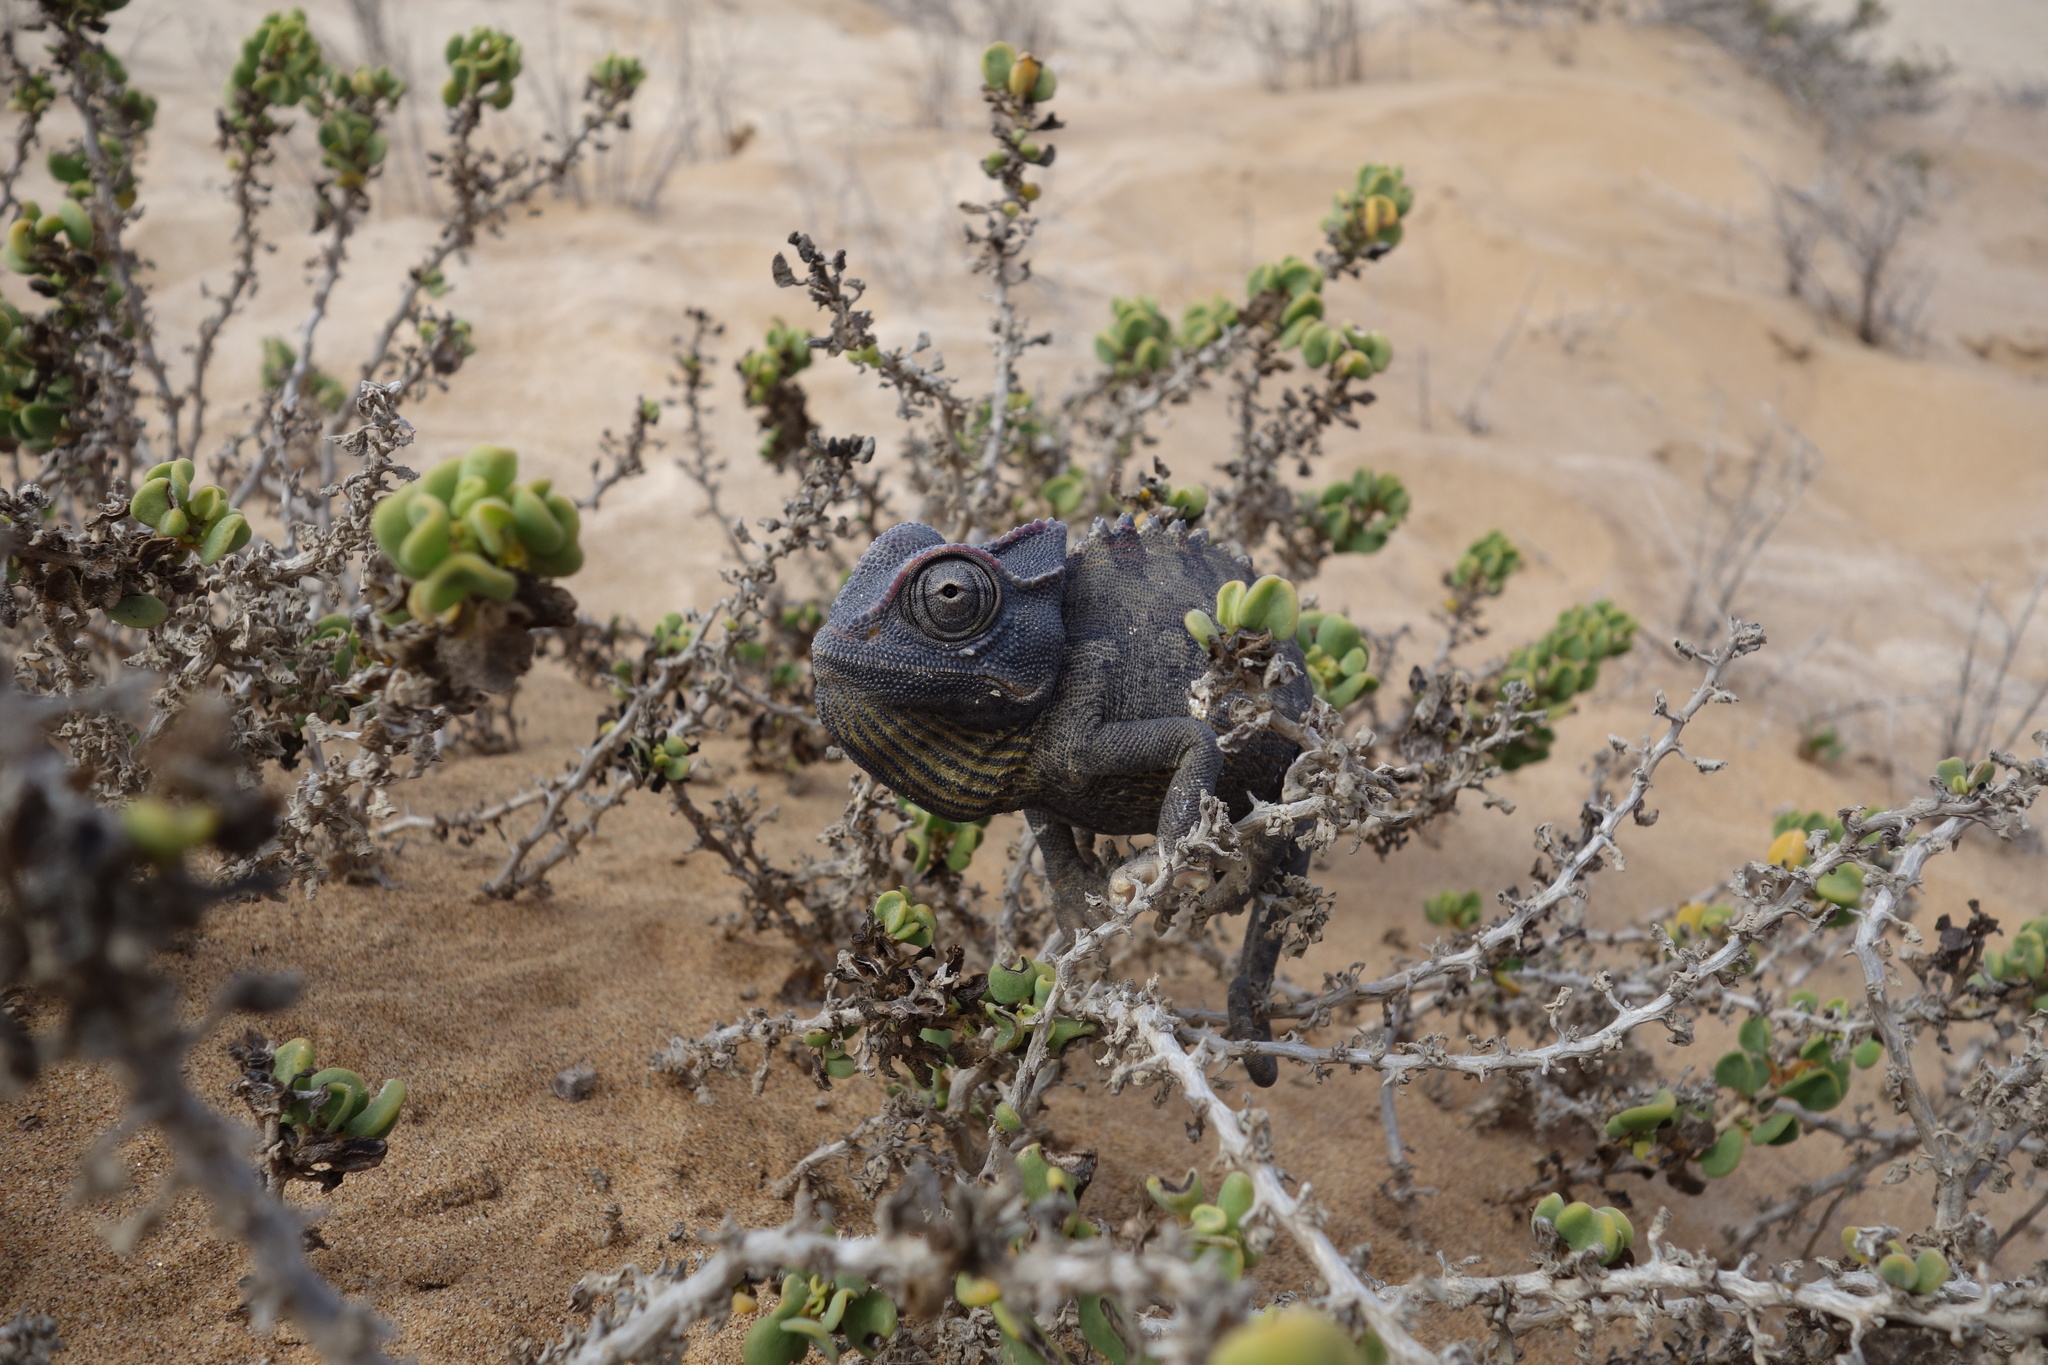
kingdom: Animalia
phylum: Chordata
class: Squamata
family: Chamaeleonidae
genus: Chamaeleo
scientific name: Chamaeleo namaquensis
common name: Namaqua chameleon
